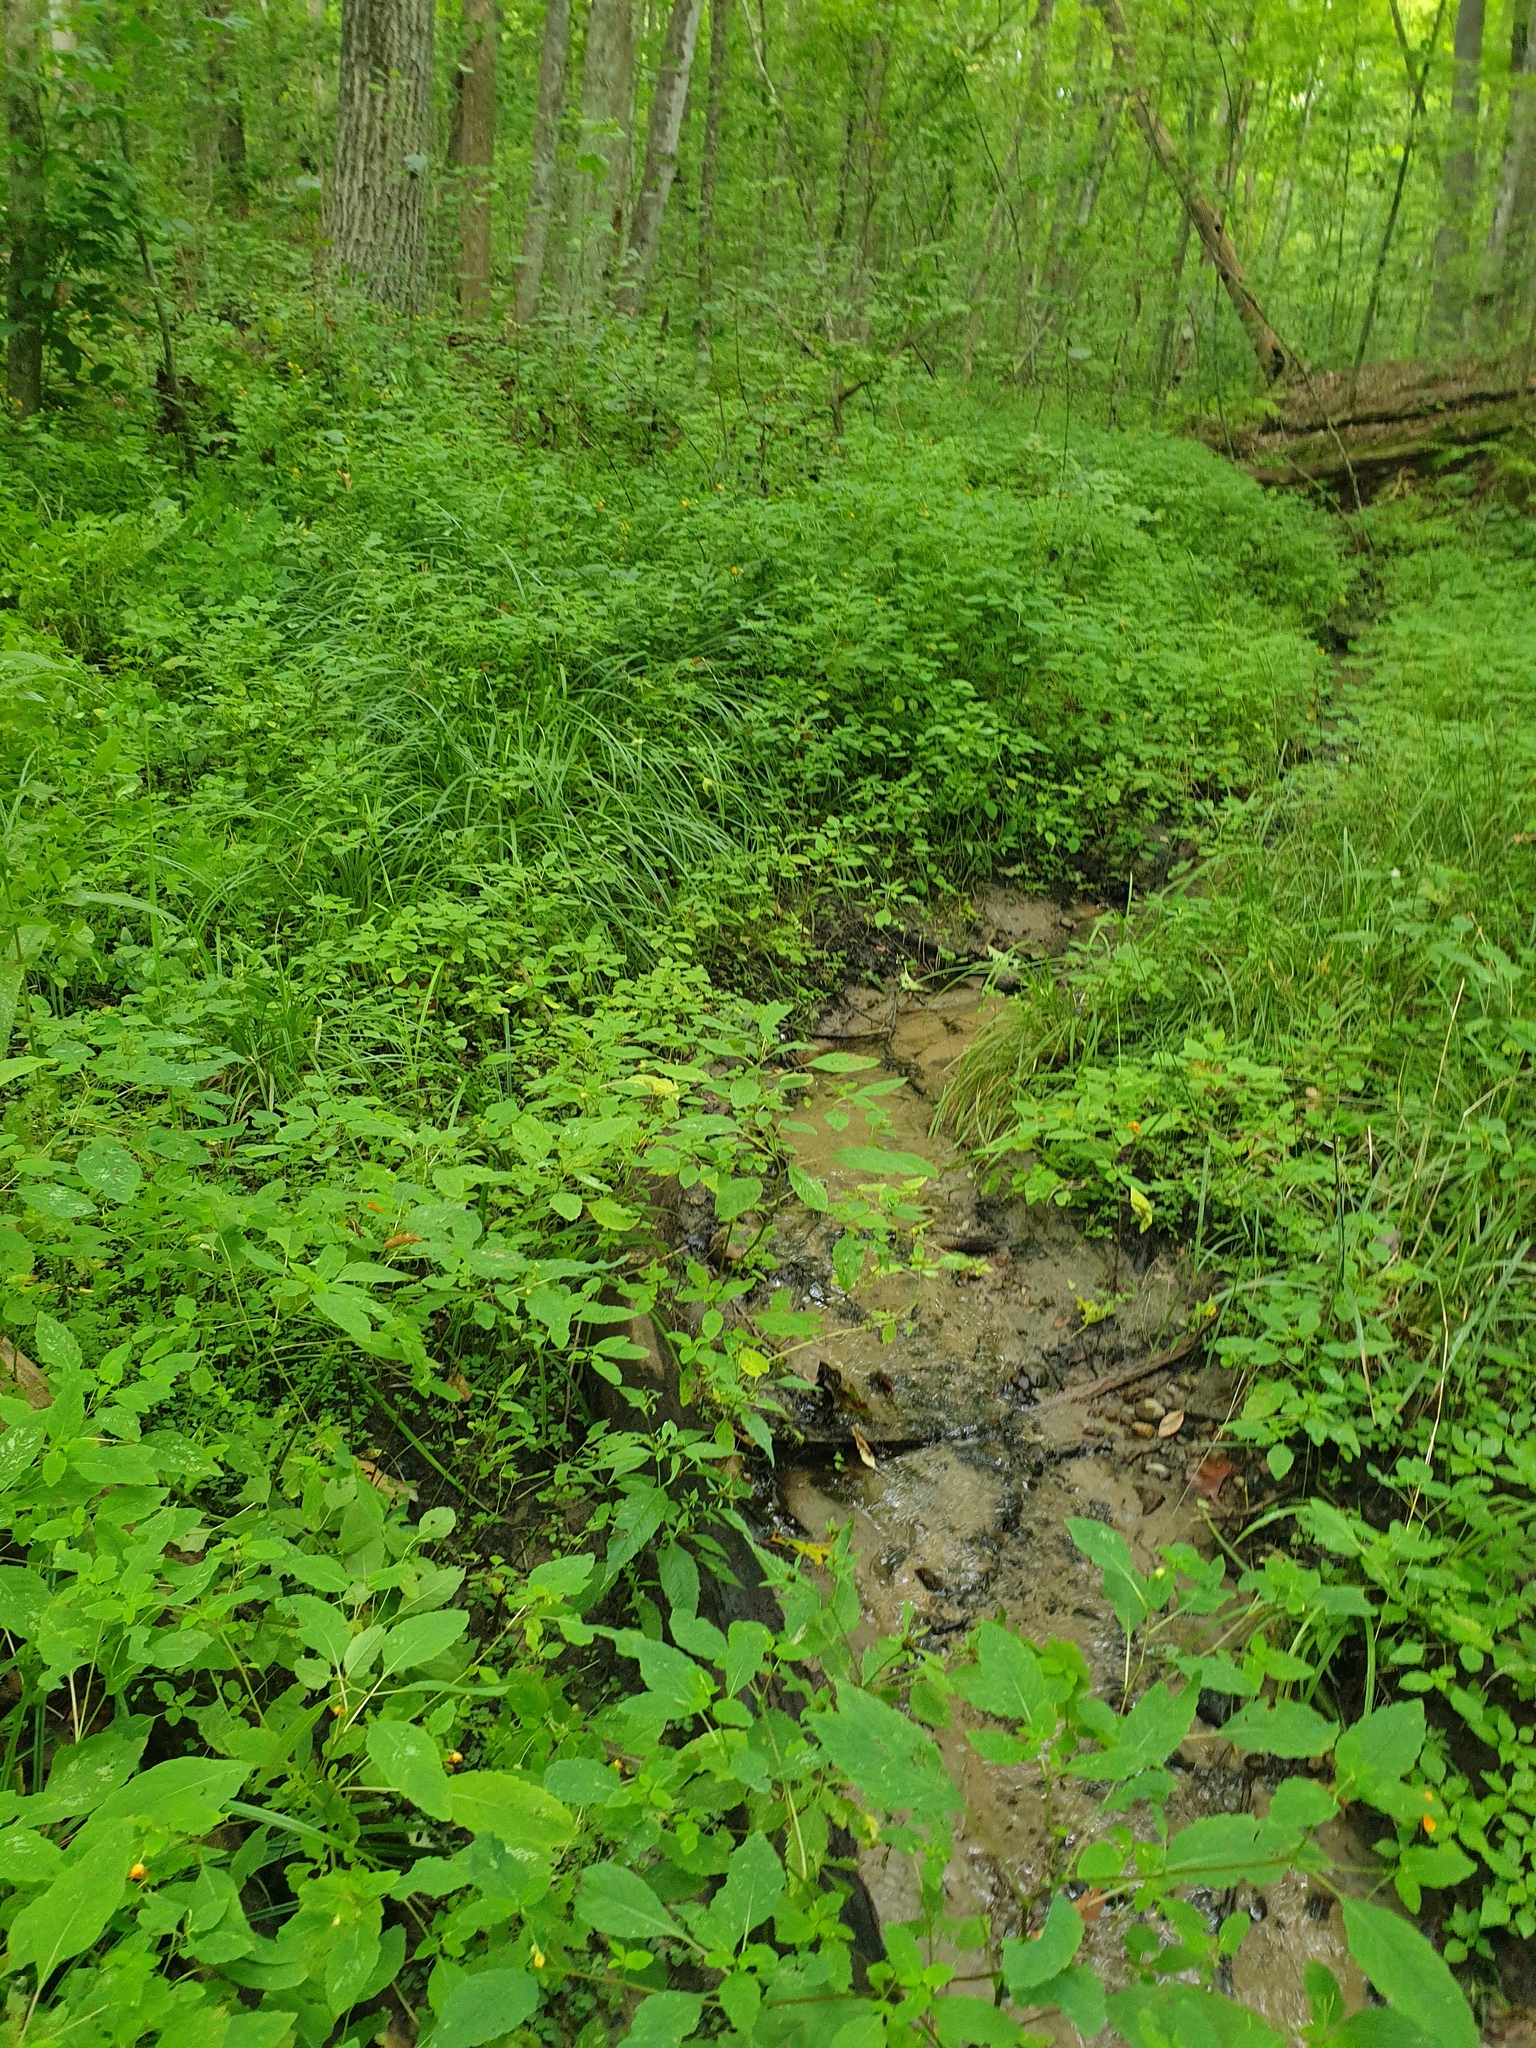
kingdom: Plantae
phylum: Tracheophyta
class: Magnoliopsida
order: Saxifragales
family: Saxifragaceae
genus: Chrysosplenium
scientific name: Chrysosplenium americanum
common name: American golden-saxifrage
